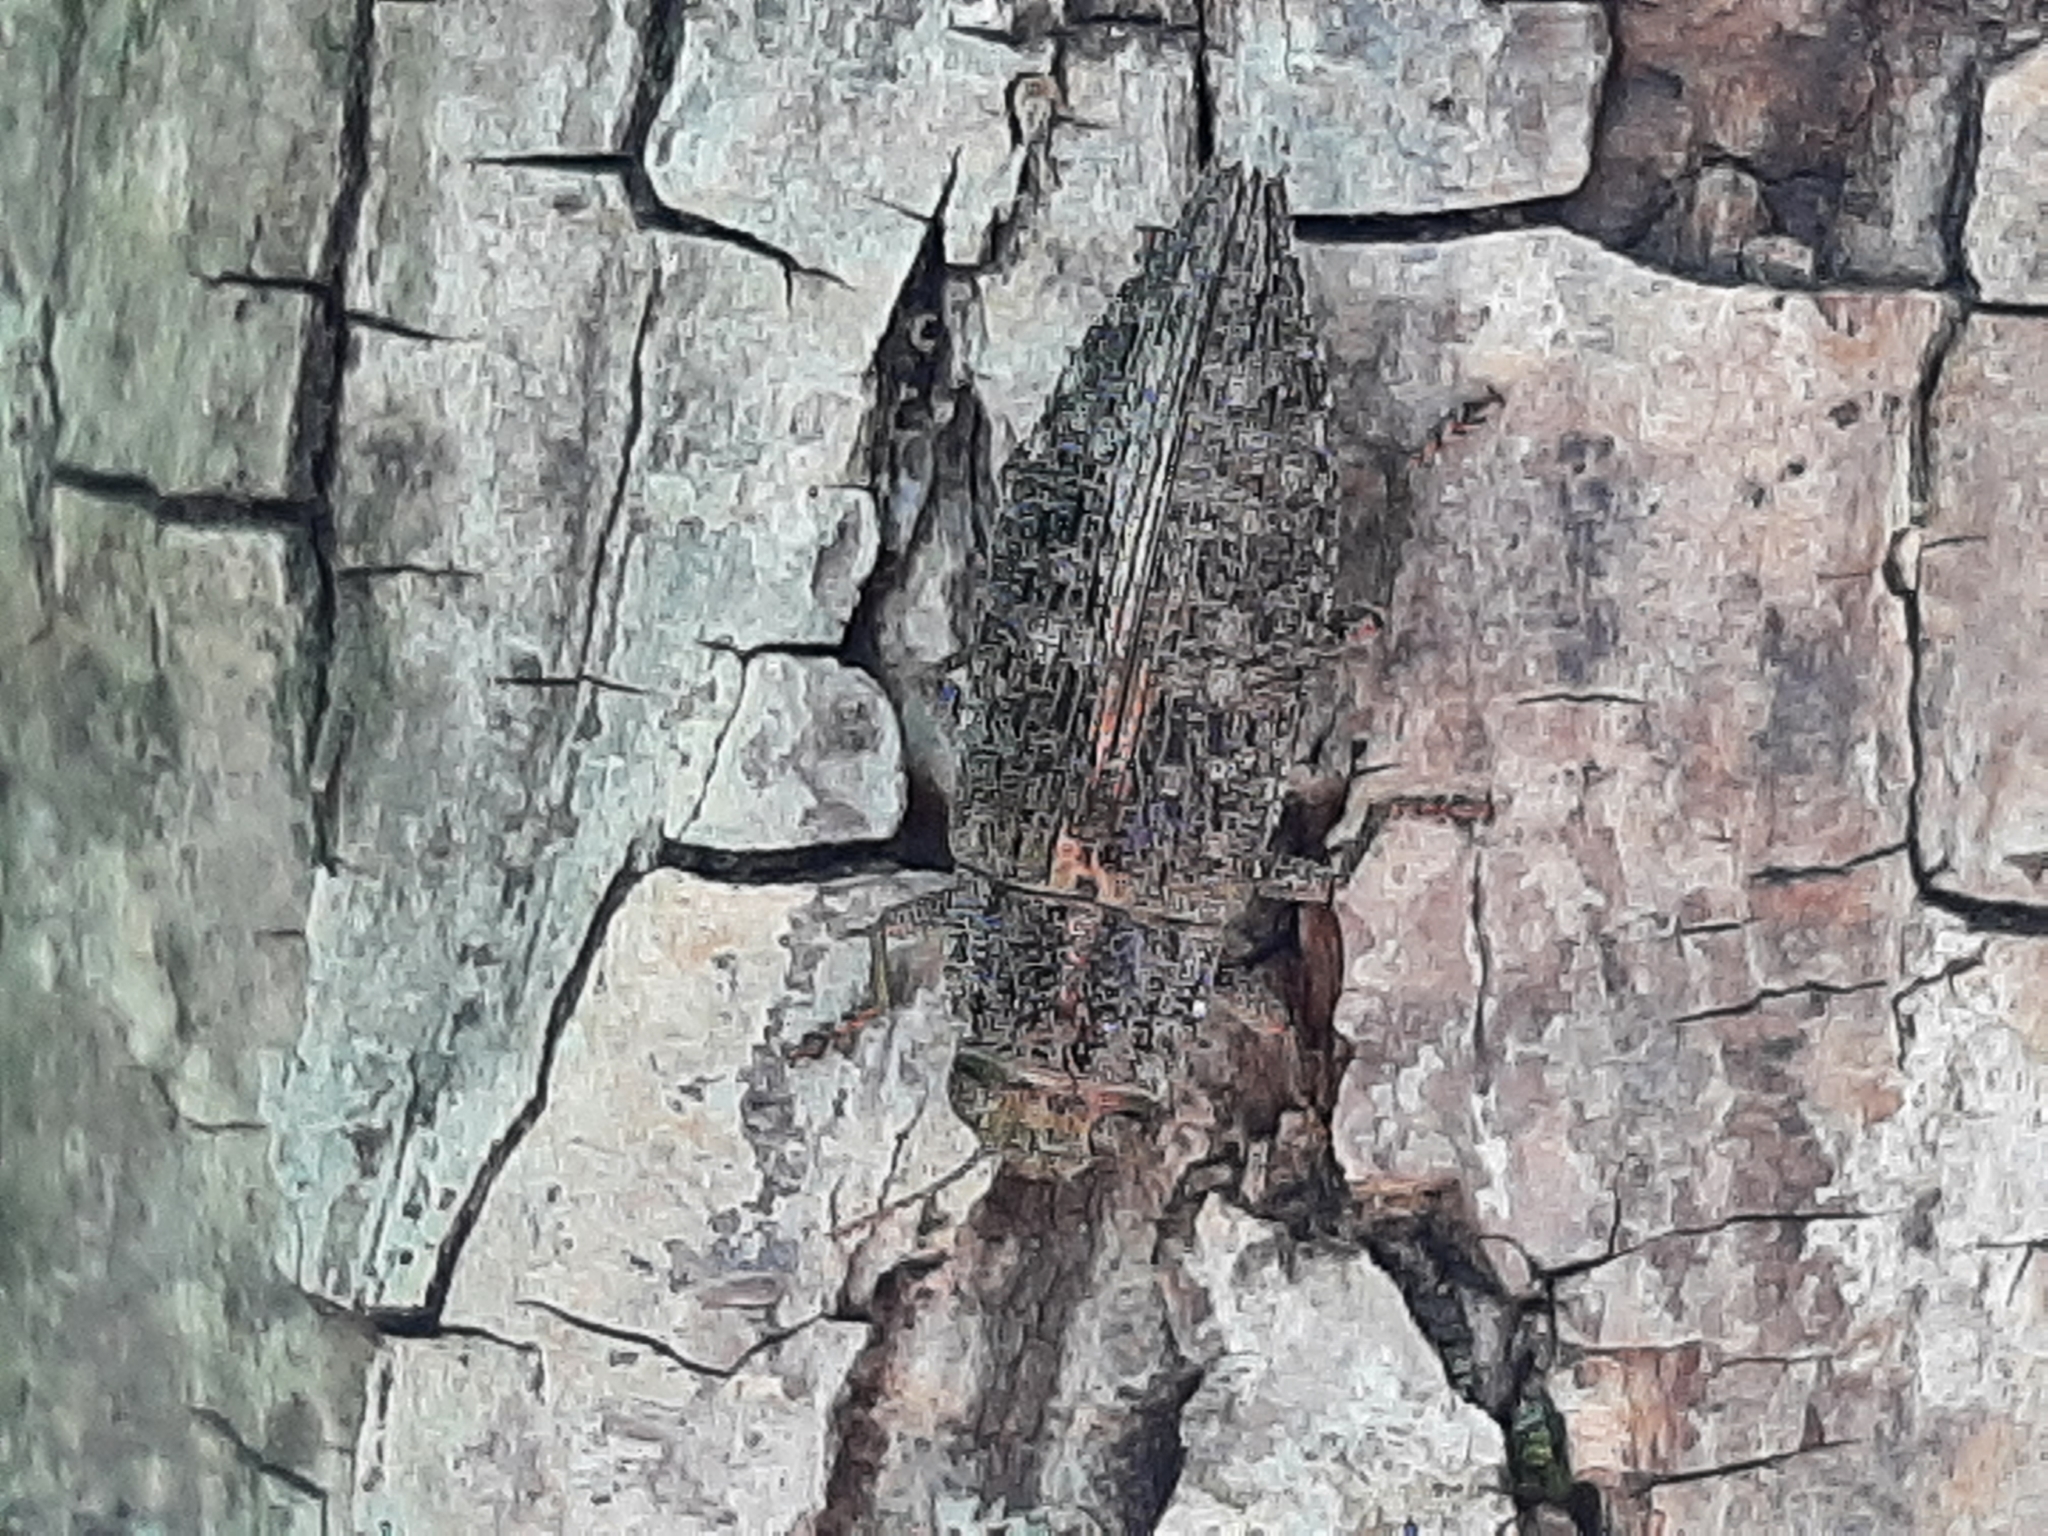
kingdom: Animalia
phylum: Arthropoda
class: Insecta
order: Coleoptera
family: Buprestidae
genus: Dicerca
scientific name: Dicerca lurida
